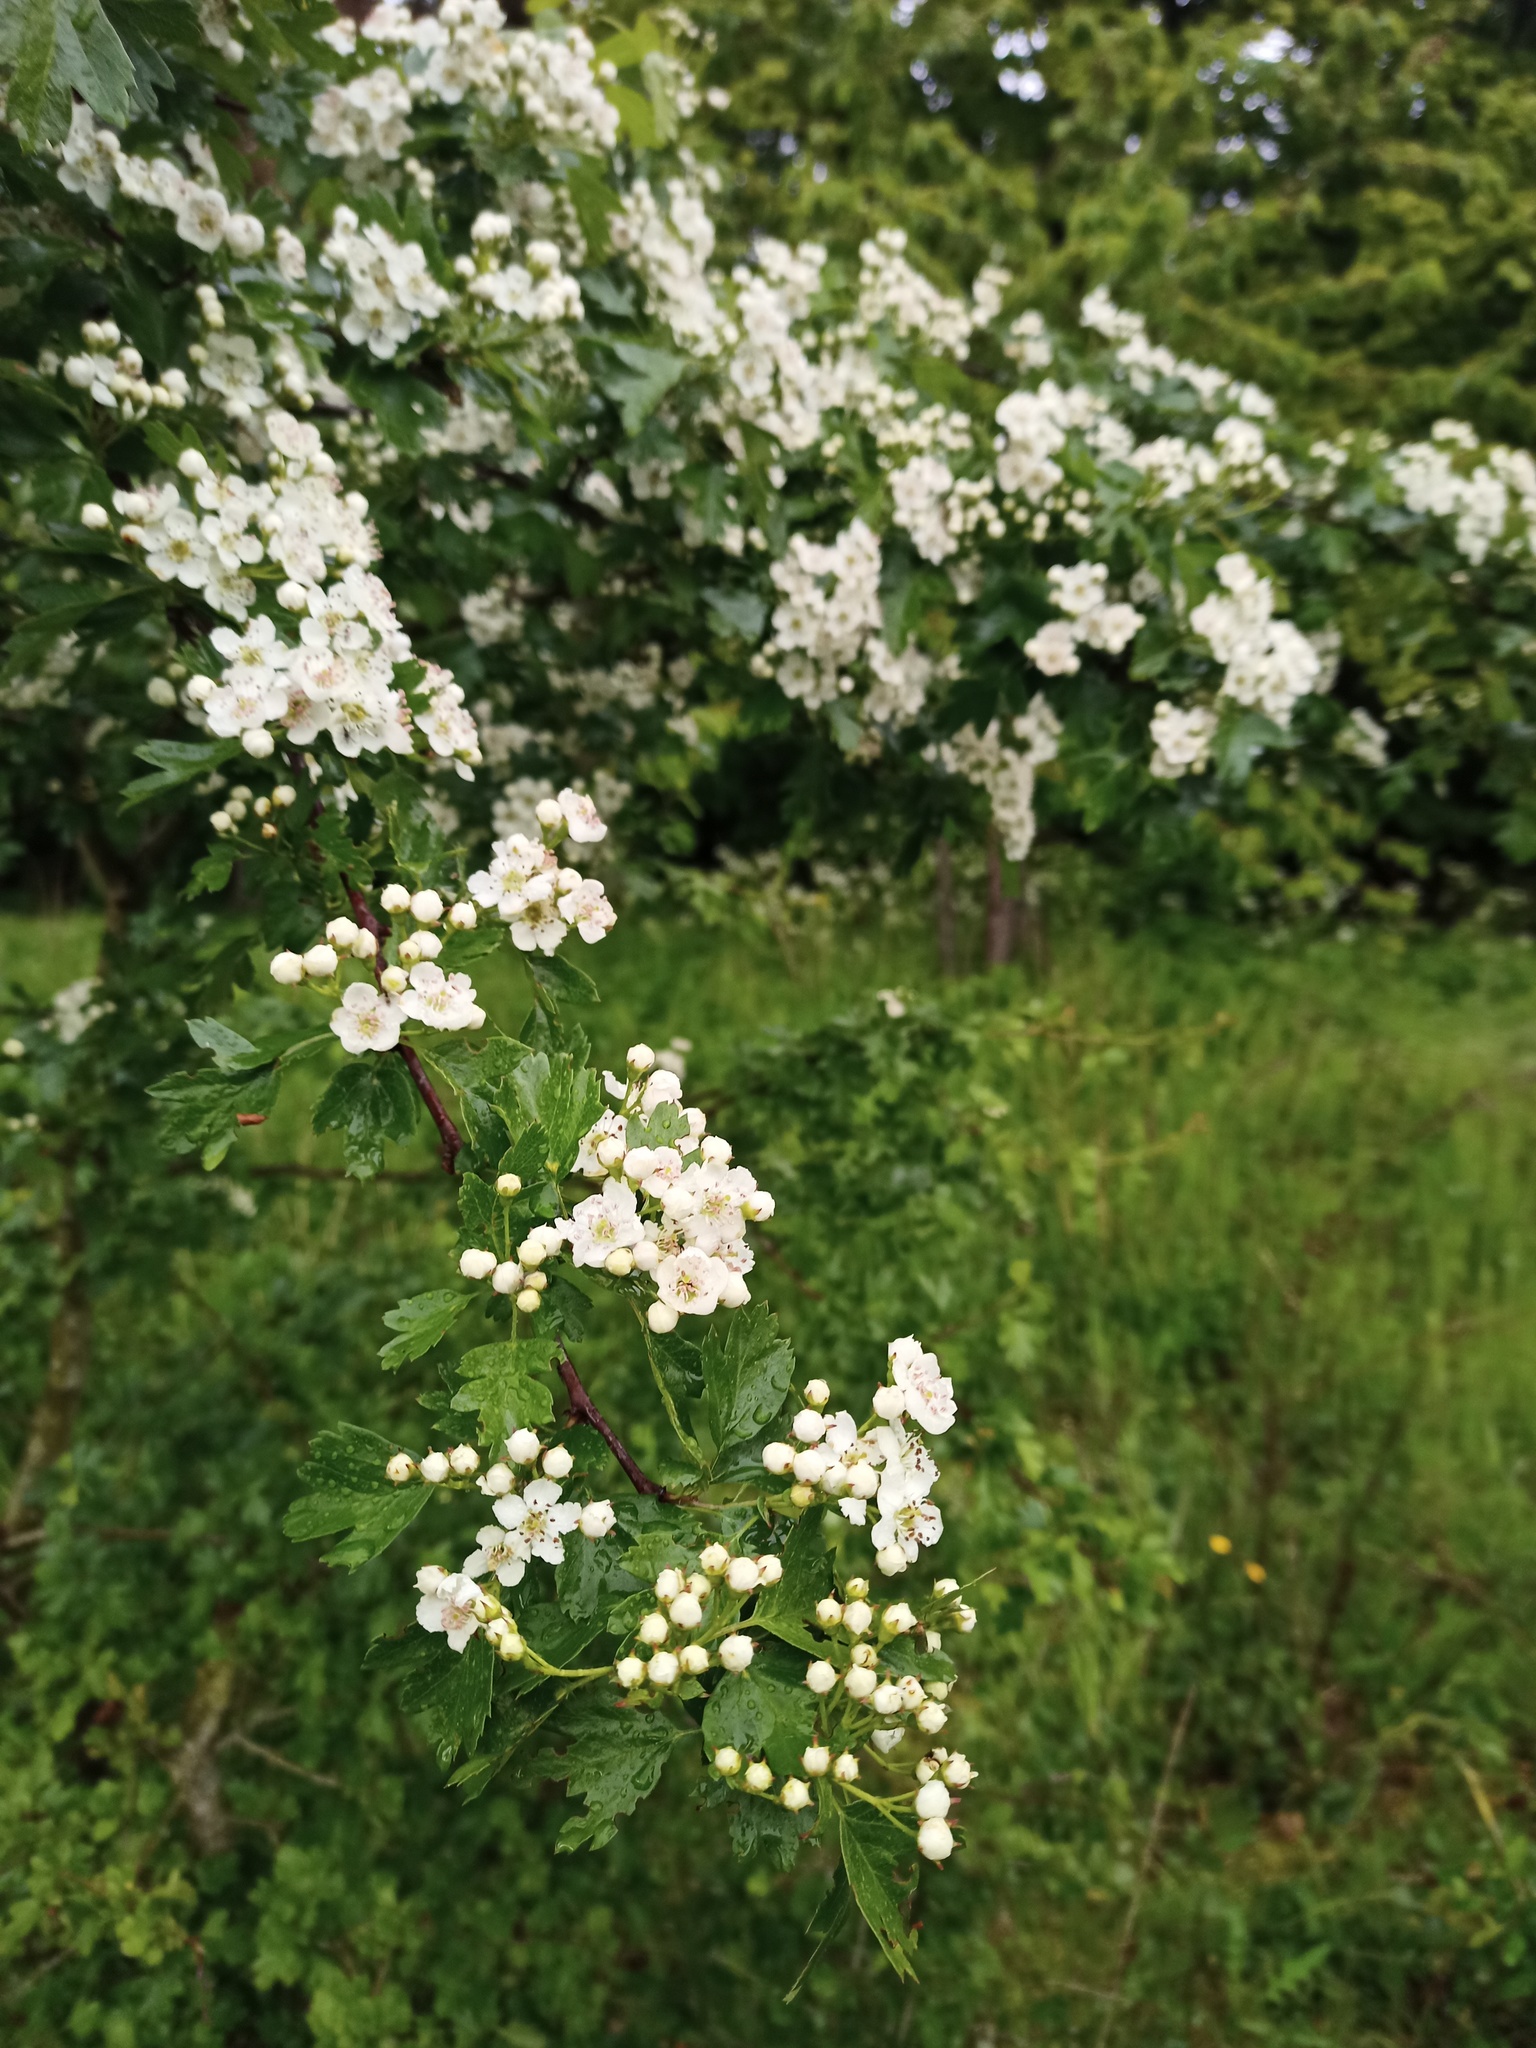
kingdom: Plantae
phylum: Tracheophyta
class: Magnoliopsida
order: Rosales
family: Rosaceae
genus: Crataegus
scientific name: Crataegus monogyna
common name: Hawthorn
